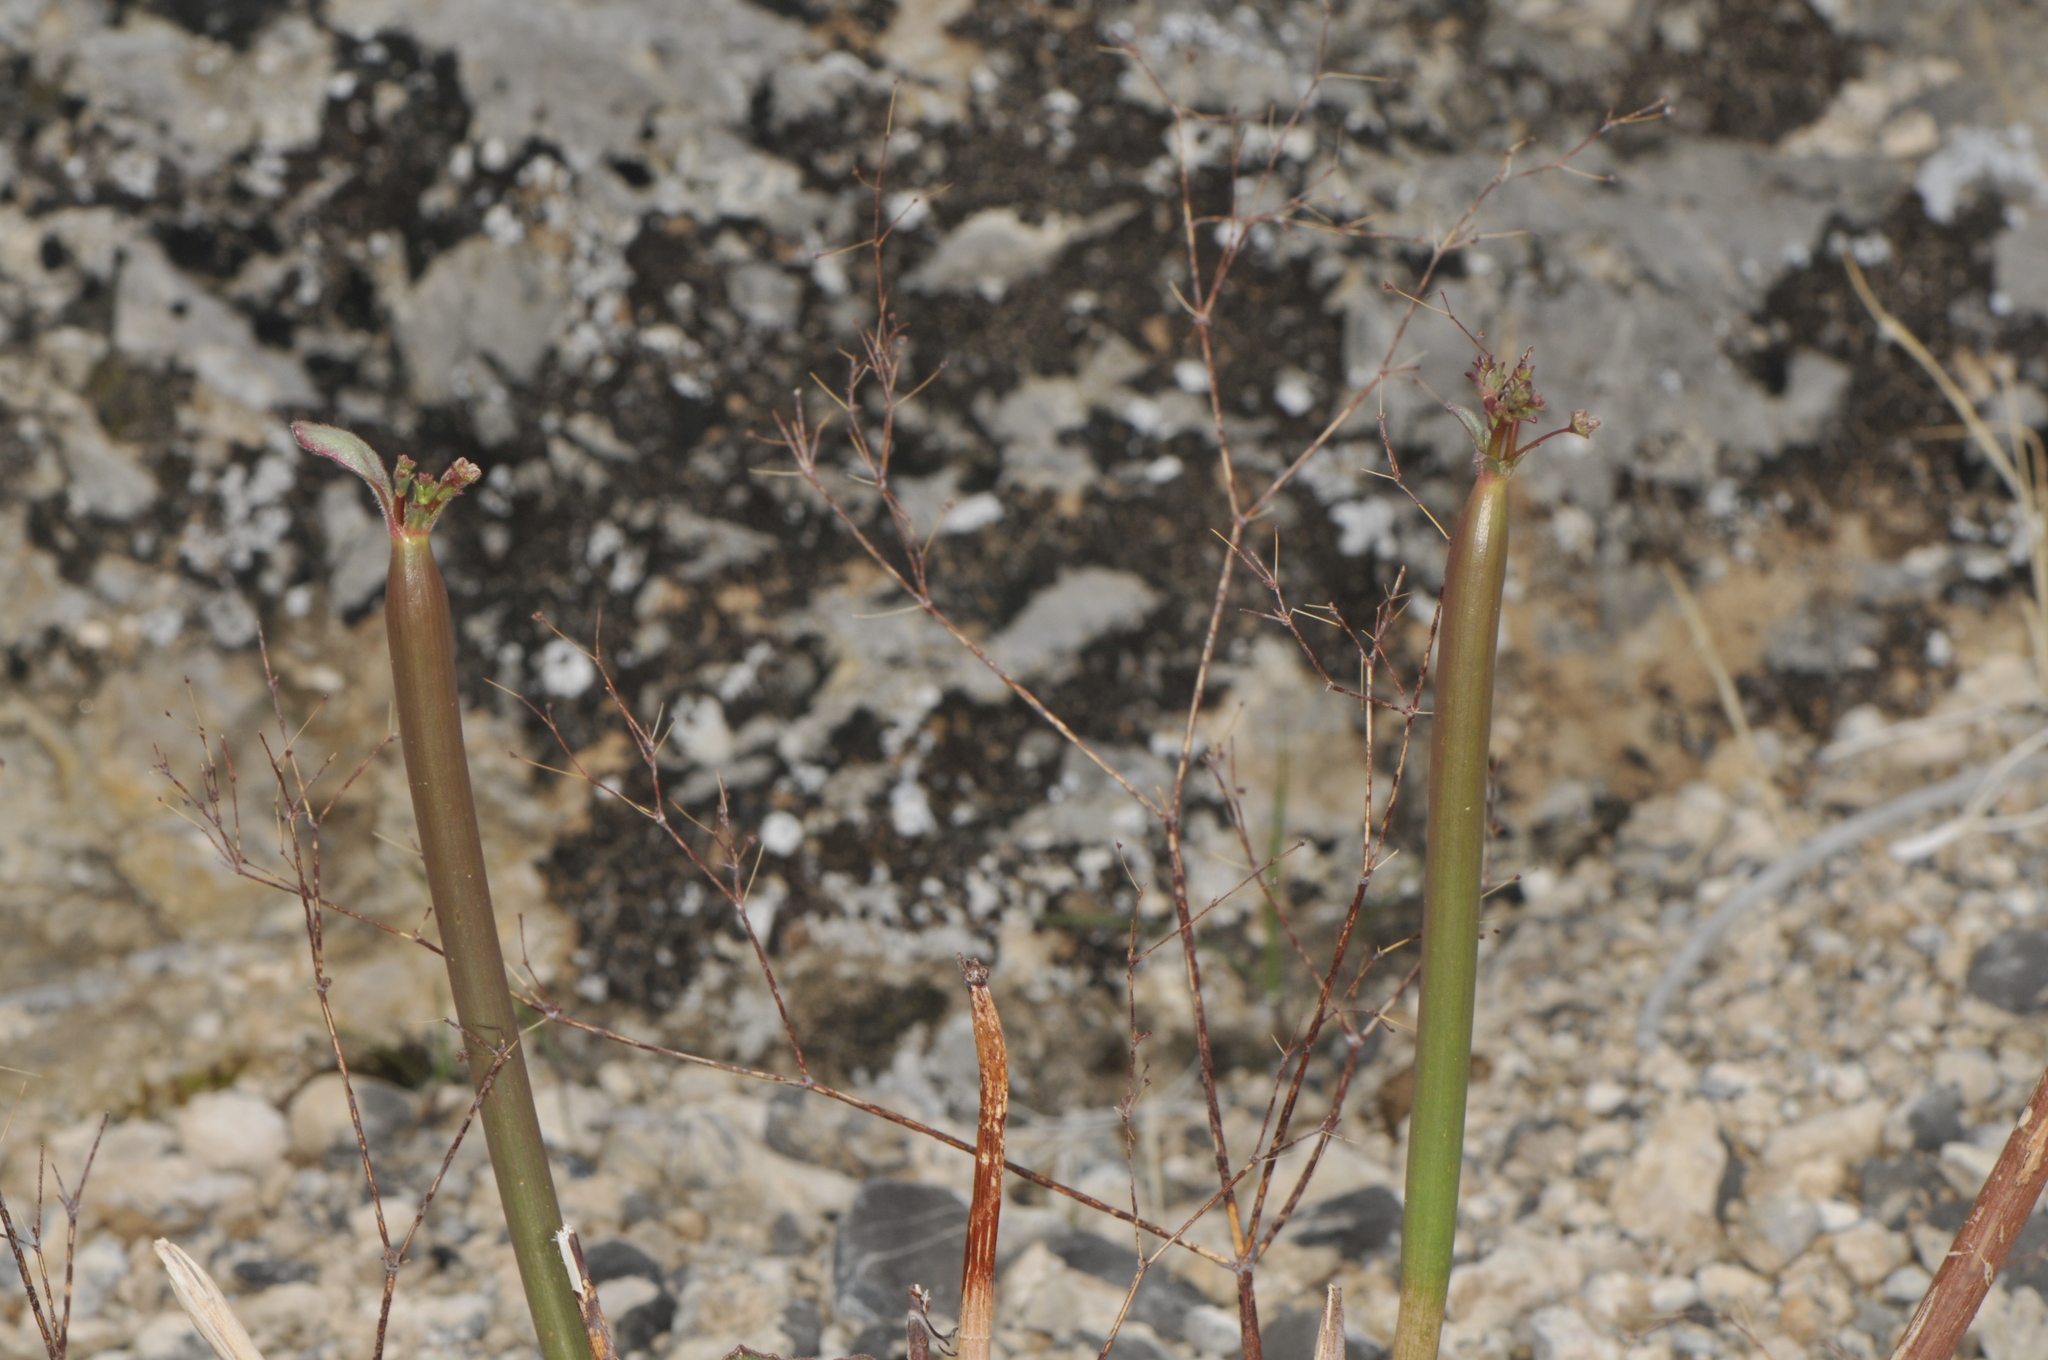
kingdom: Plantae
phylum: Tracheophyta
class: Magnoliopsida
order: Caryophyllales
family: Polygonaceae
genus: Eriogonum
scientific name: Eriogonum inflatum
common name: Desert trumpet
